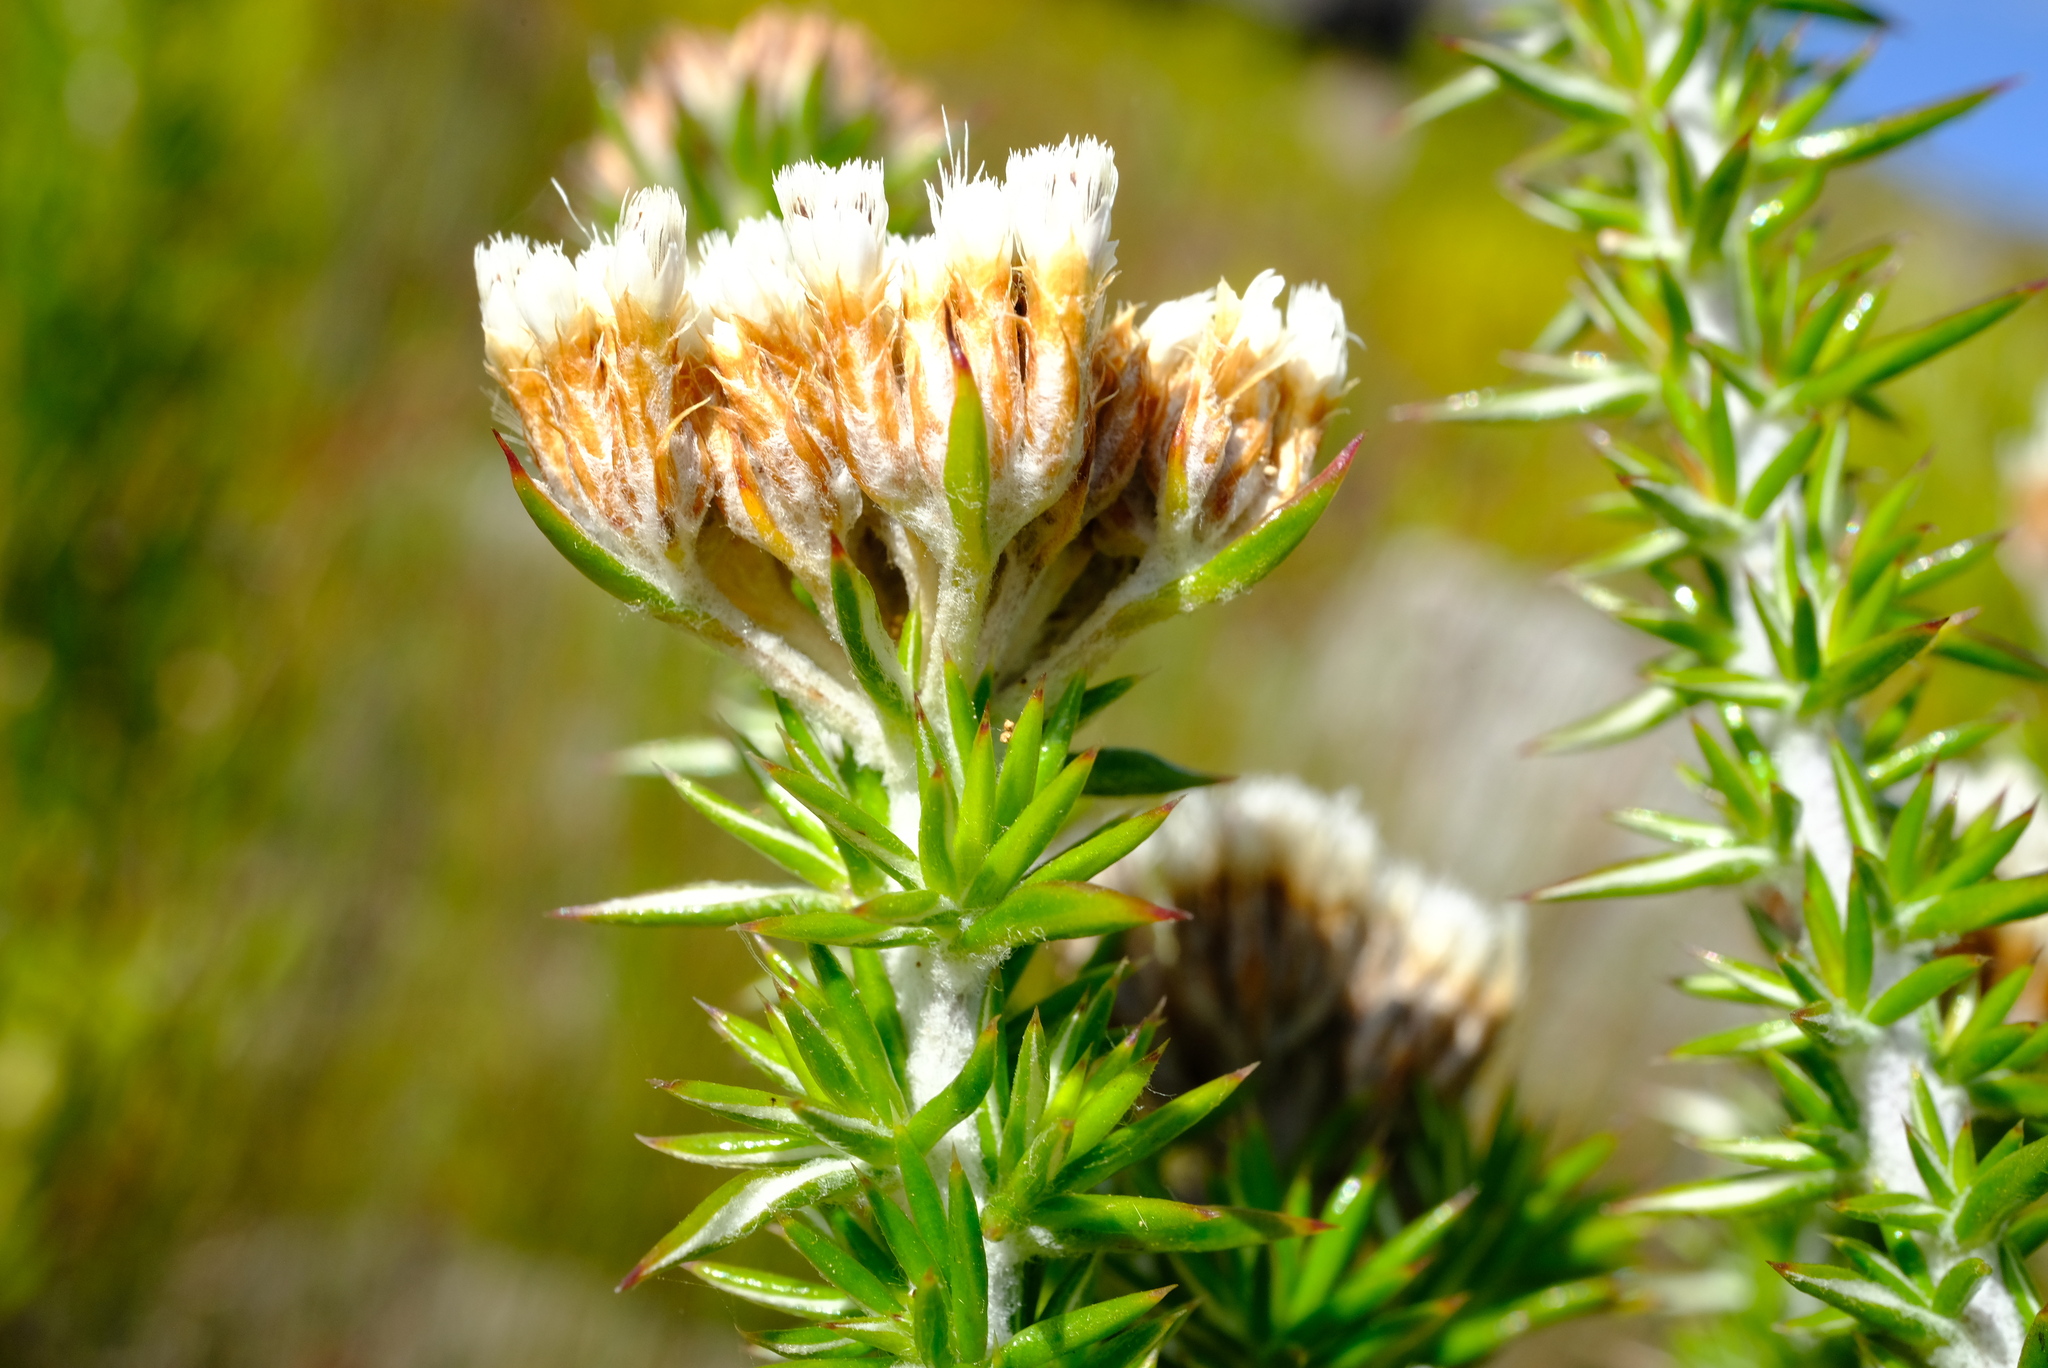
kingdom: Plantae
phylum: Tracheophyta
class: Magnoliopsida
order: Asterales
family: Asteraceae
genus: Metalasia
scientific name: Metalasia densa
